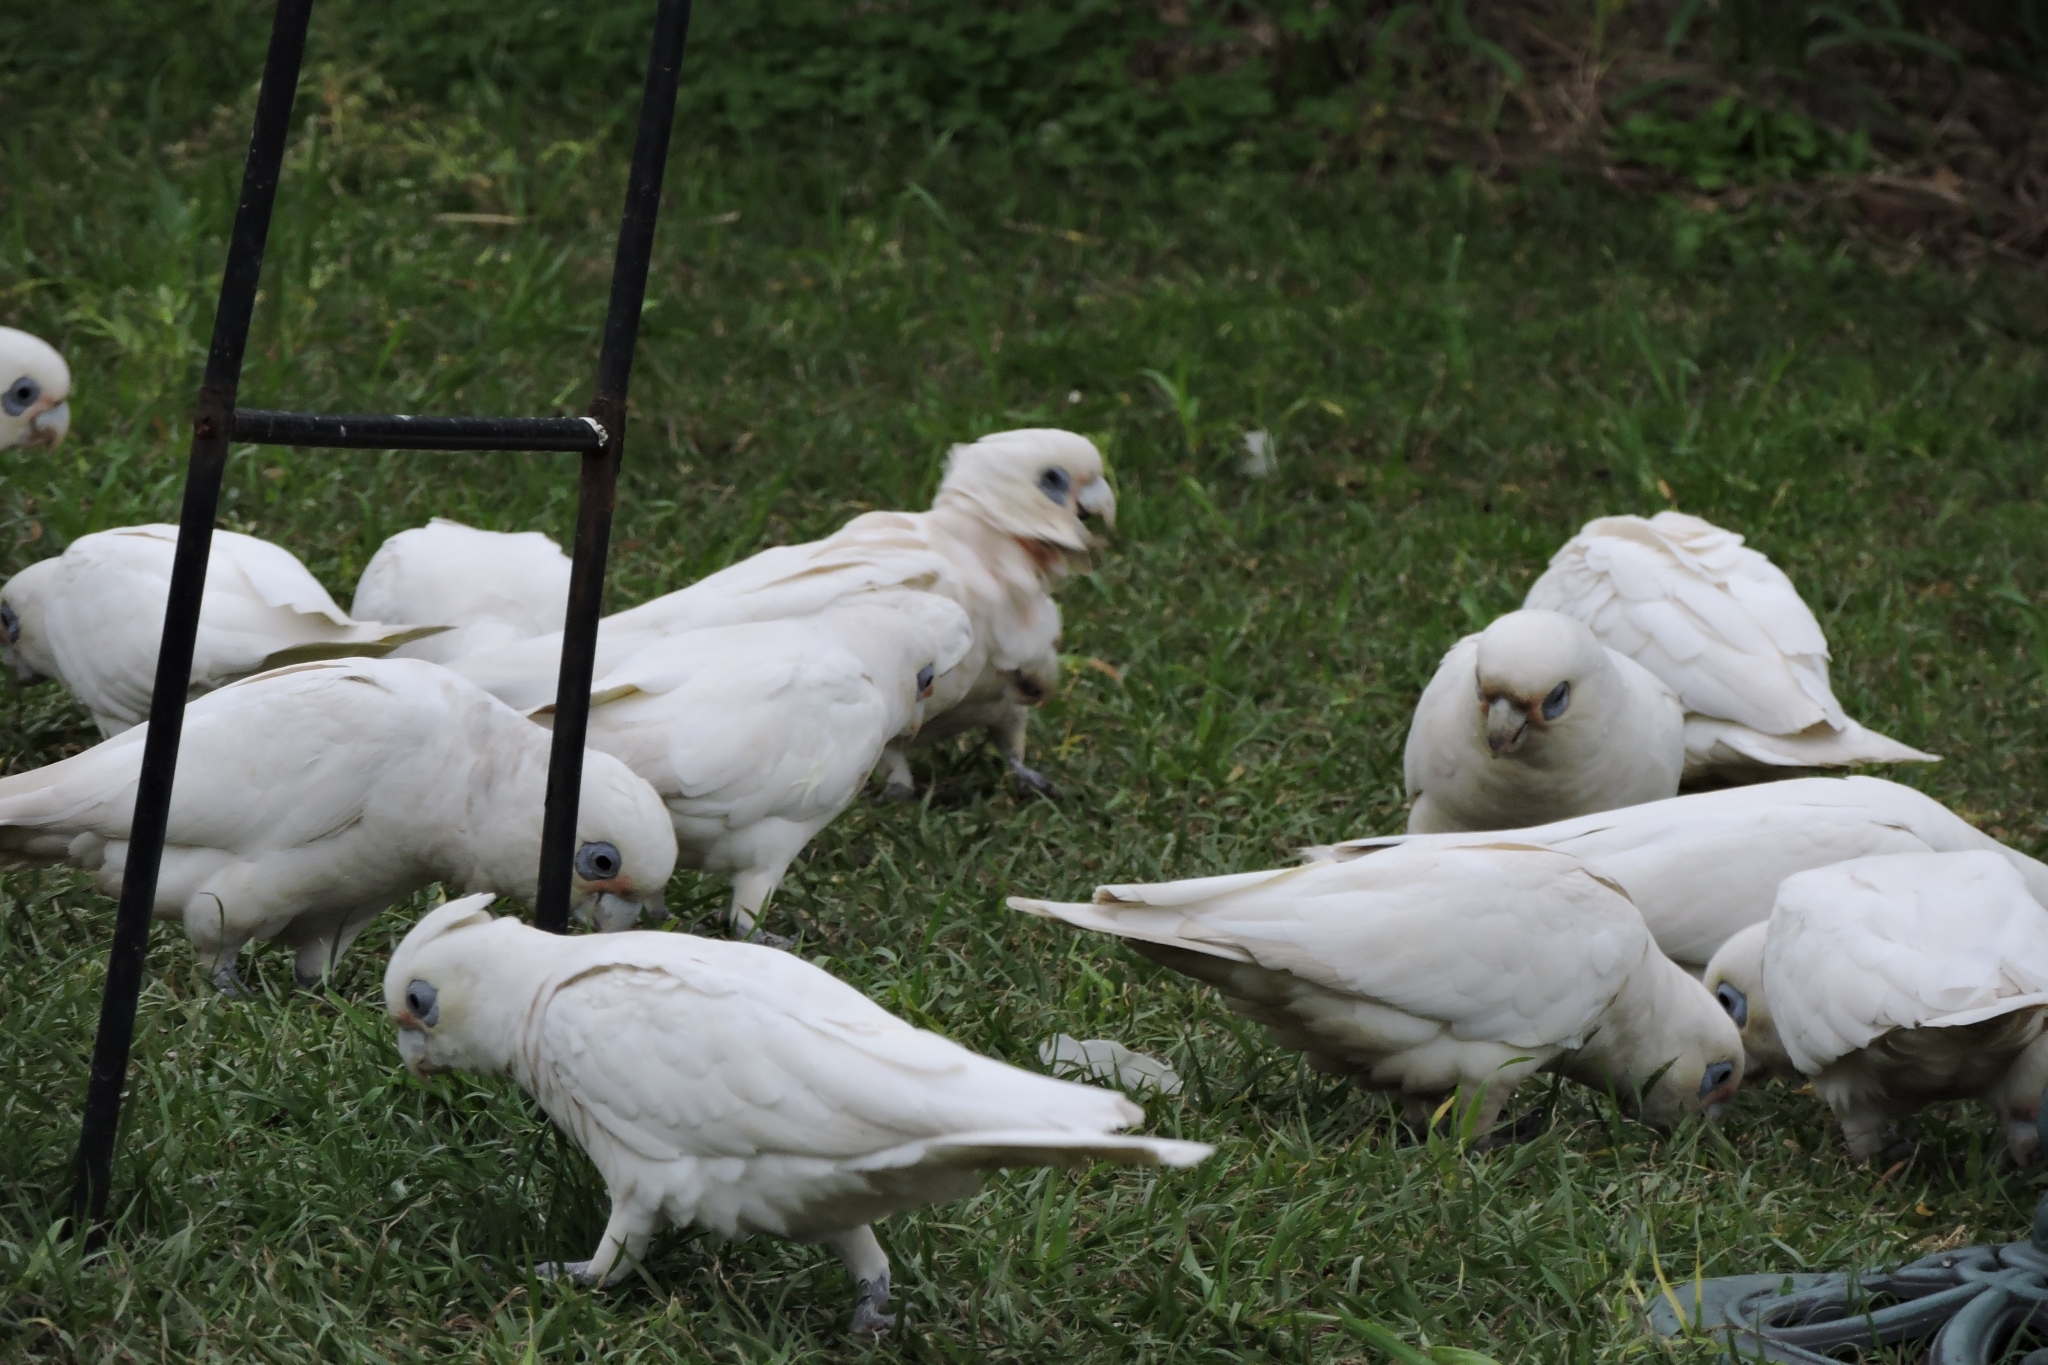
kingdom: Animalia
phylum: Chordata
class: Aves
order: Psittaciformes
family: Psittacidae
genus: Cacatua
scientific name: Cacatua sanguinea
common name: Little corella
